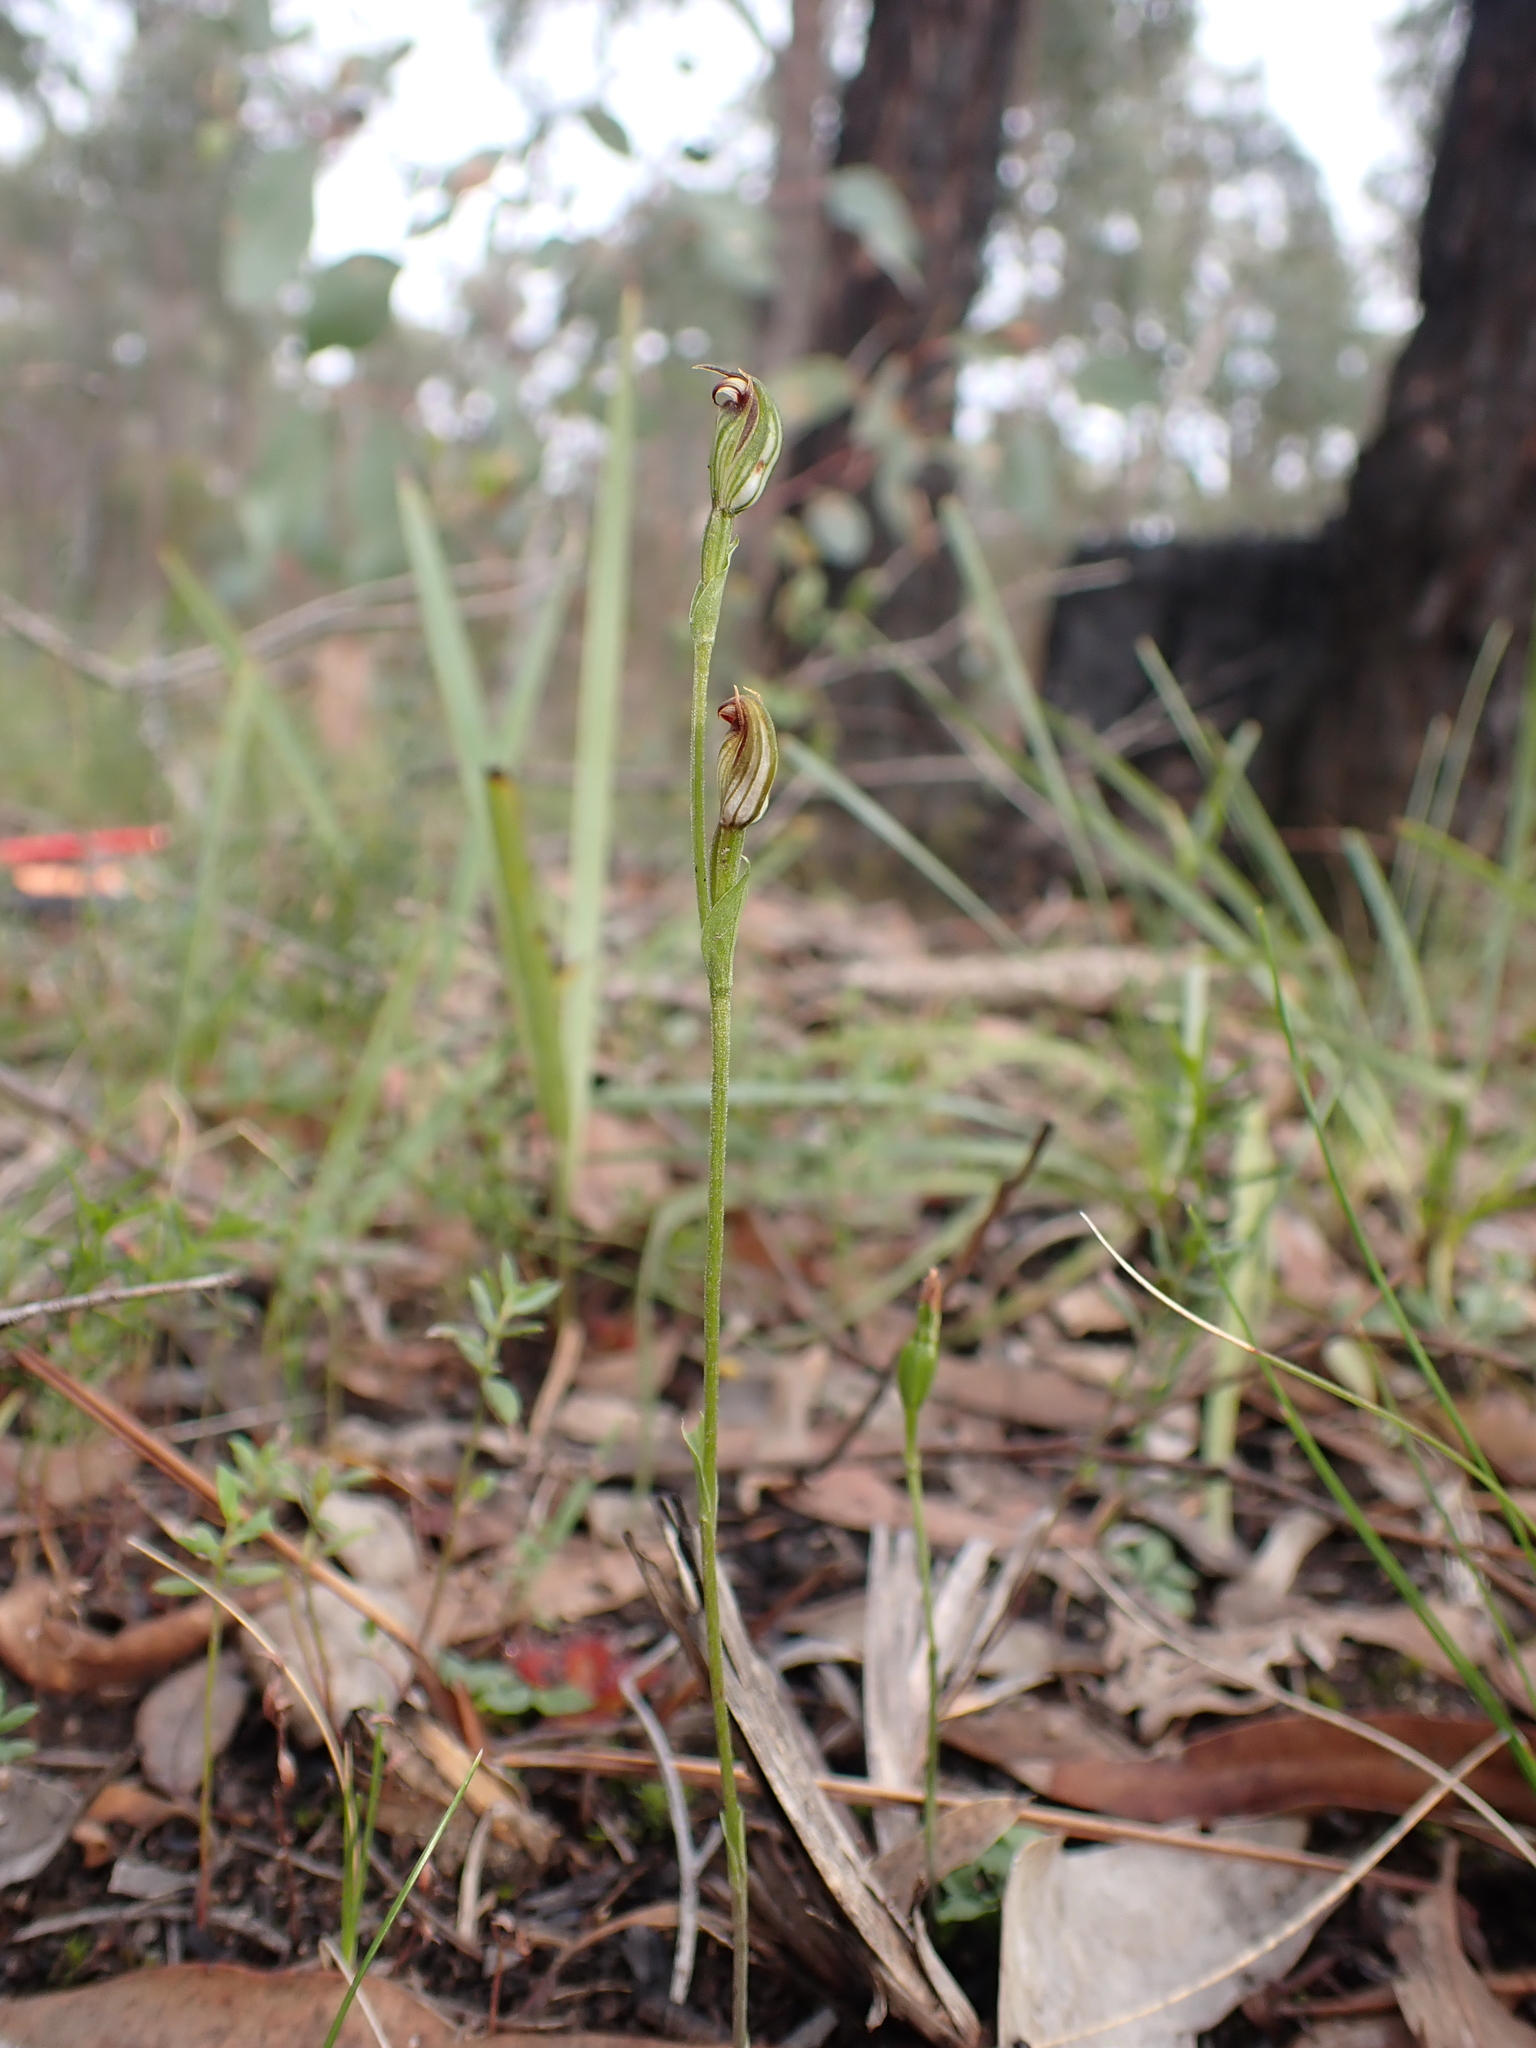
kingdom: Plantae
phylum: Tracheophyta
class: Liliopsida
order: Asparagales
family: Orchidaceae
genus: Pterostylis
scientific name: Pterostylis rubescens
